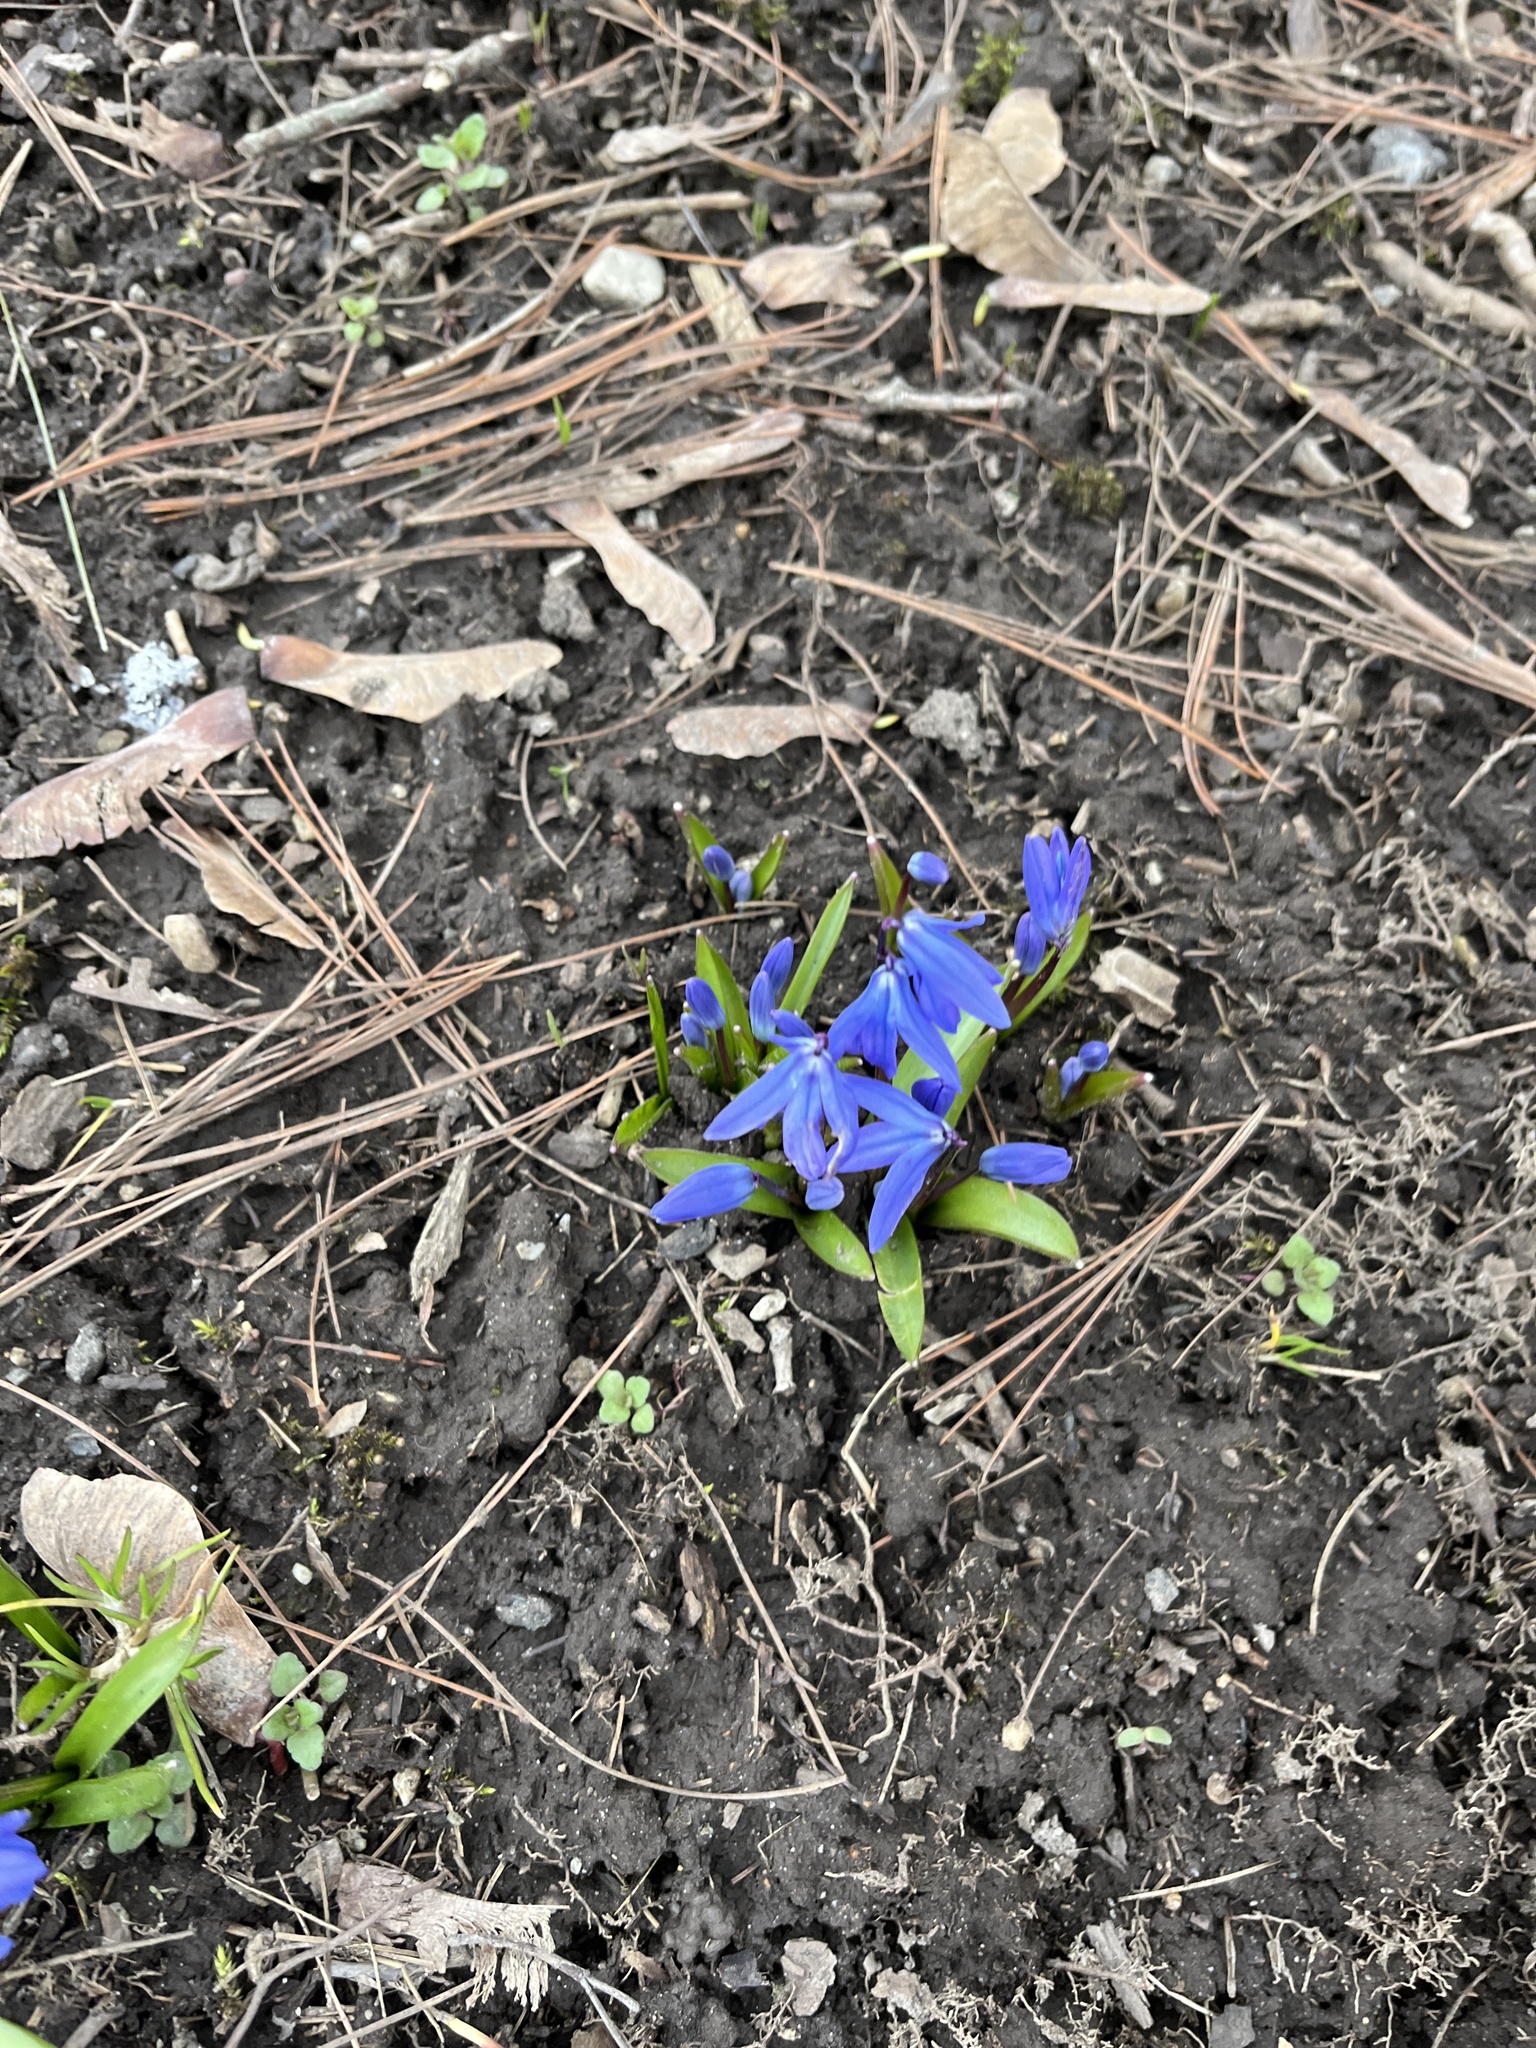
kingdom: Plantae
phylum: Tracheophyta
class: Liliopsida
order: Asparagales
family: Asparagaceae
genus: Scilla
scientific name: Scilla siberica
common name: Siberian squill
